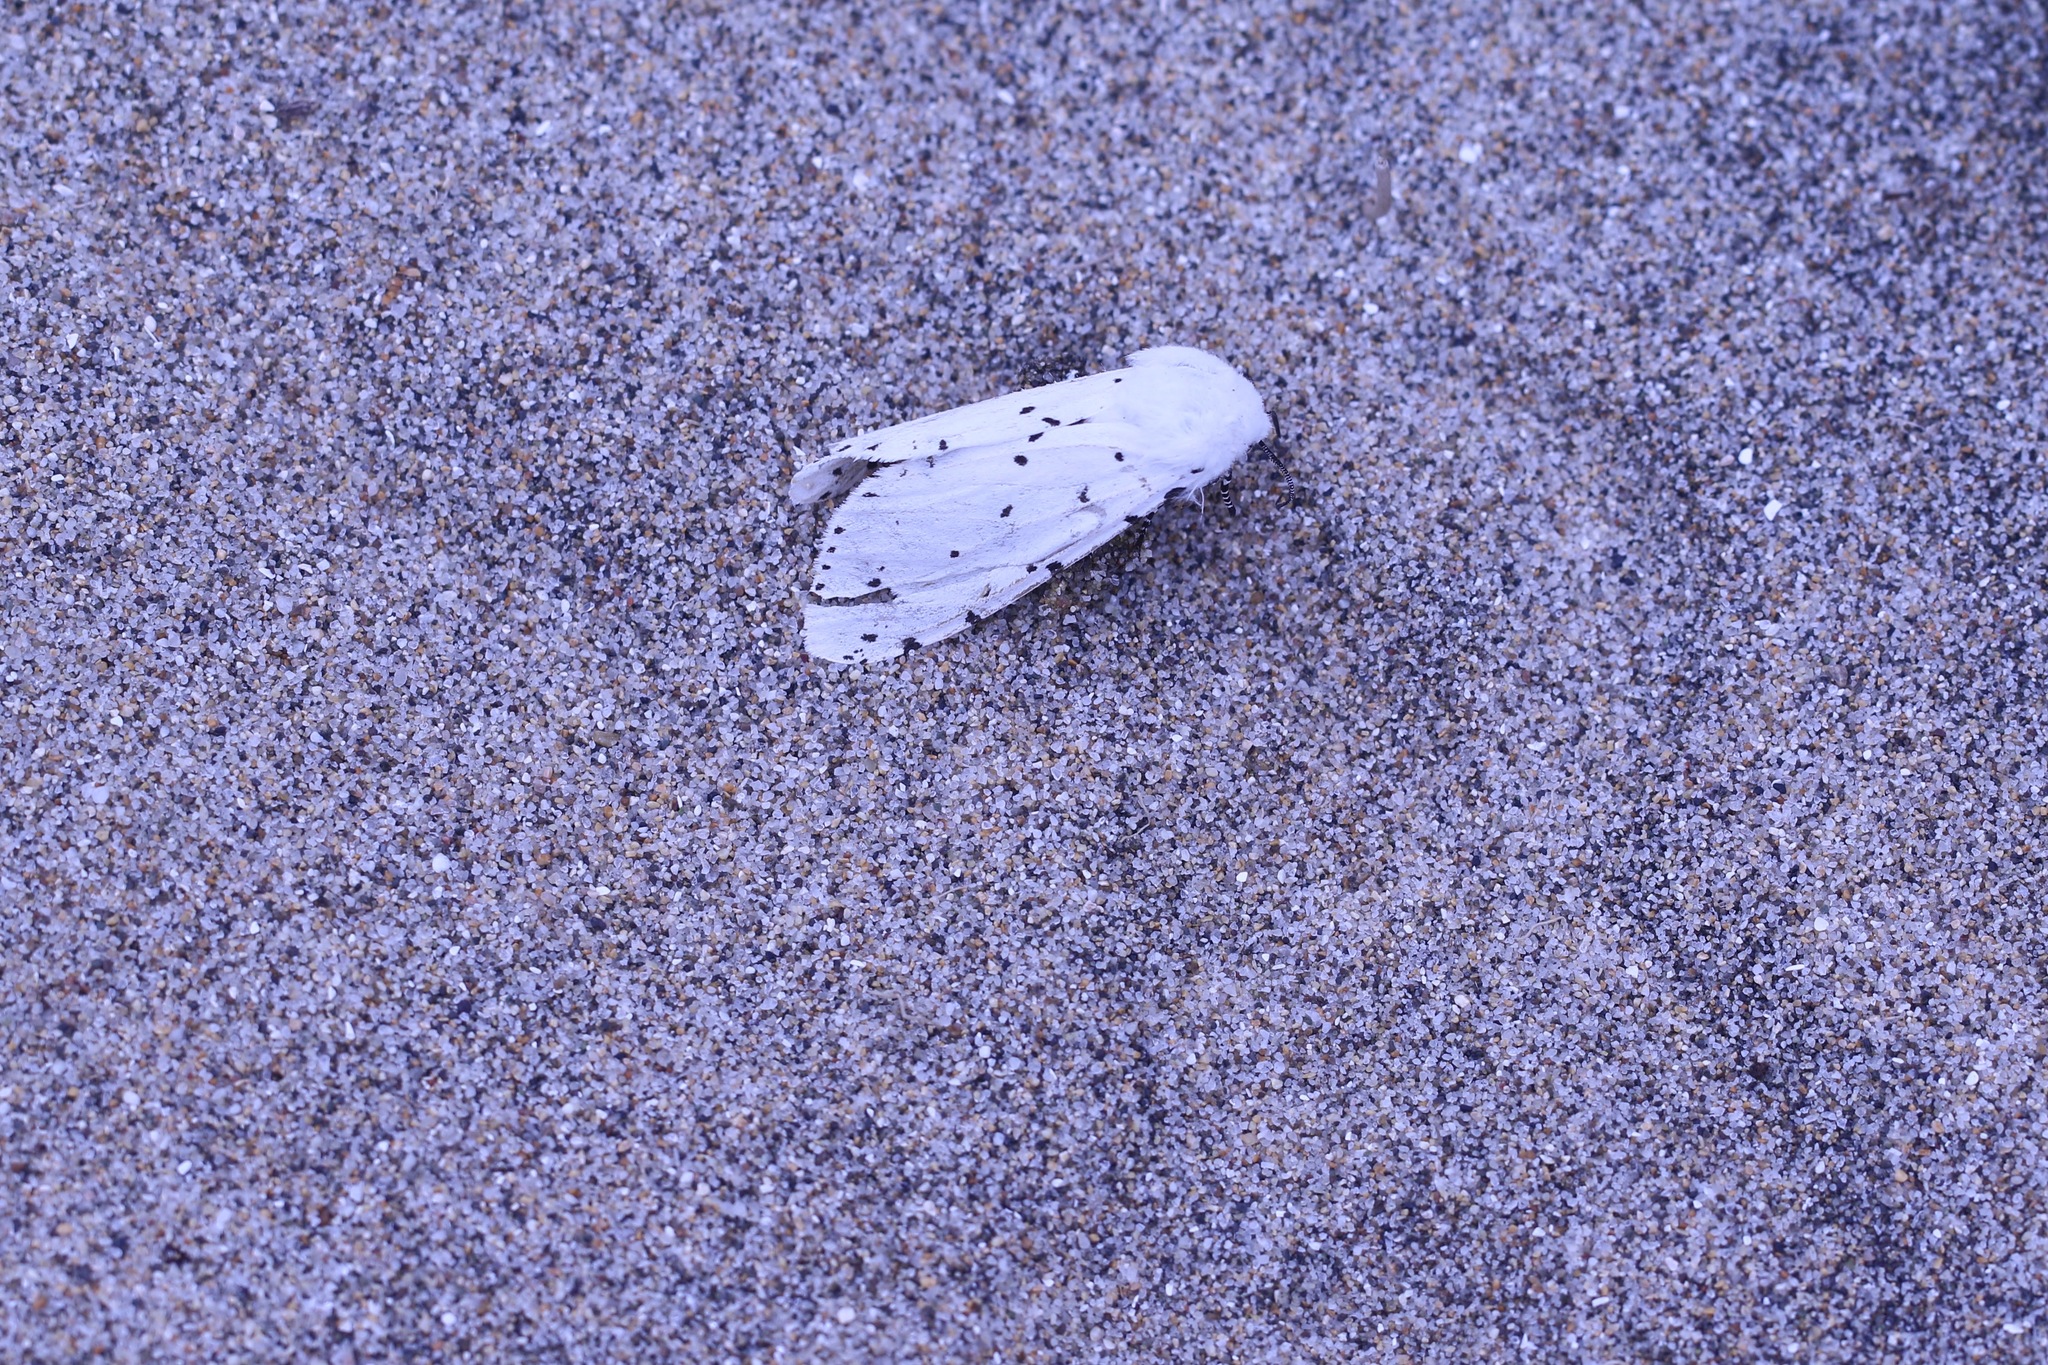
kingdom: Animalia
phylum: Arthropoda
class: Insecta
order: Lepidoptera
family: Erebidae
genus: Estigmene
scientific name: Estigmene acrea
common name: Salt marsh moth
